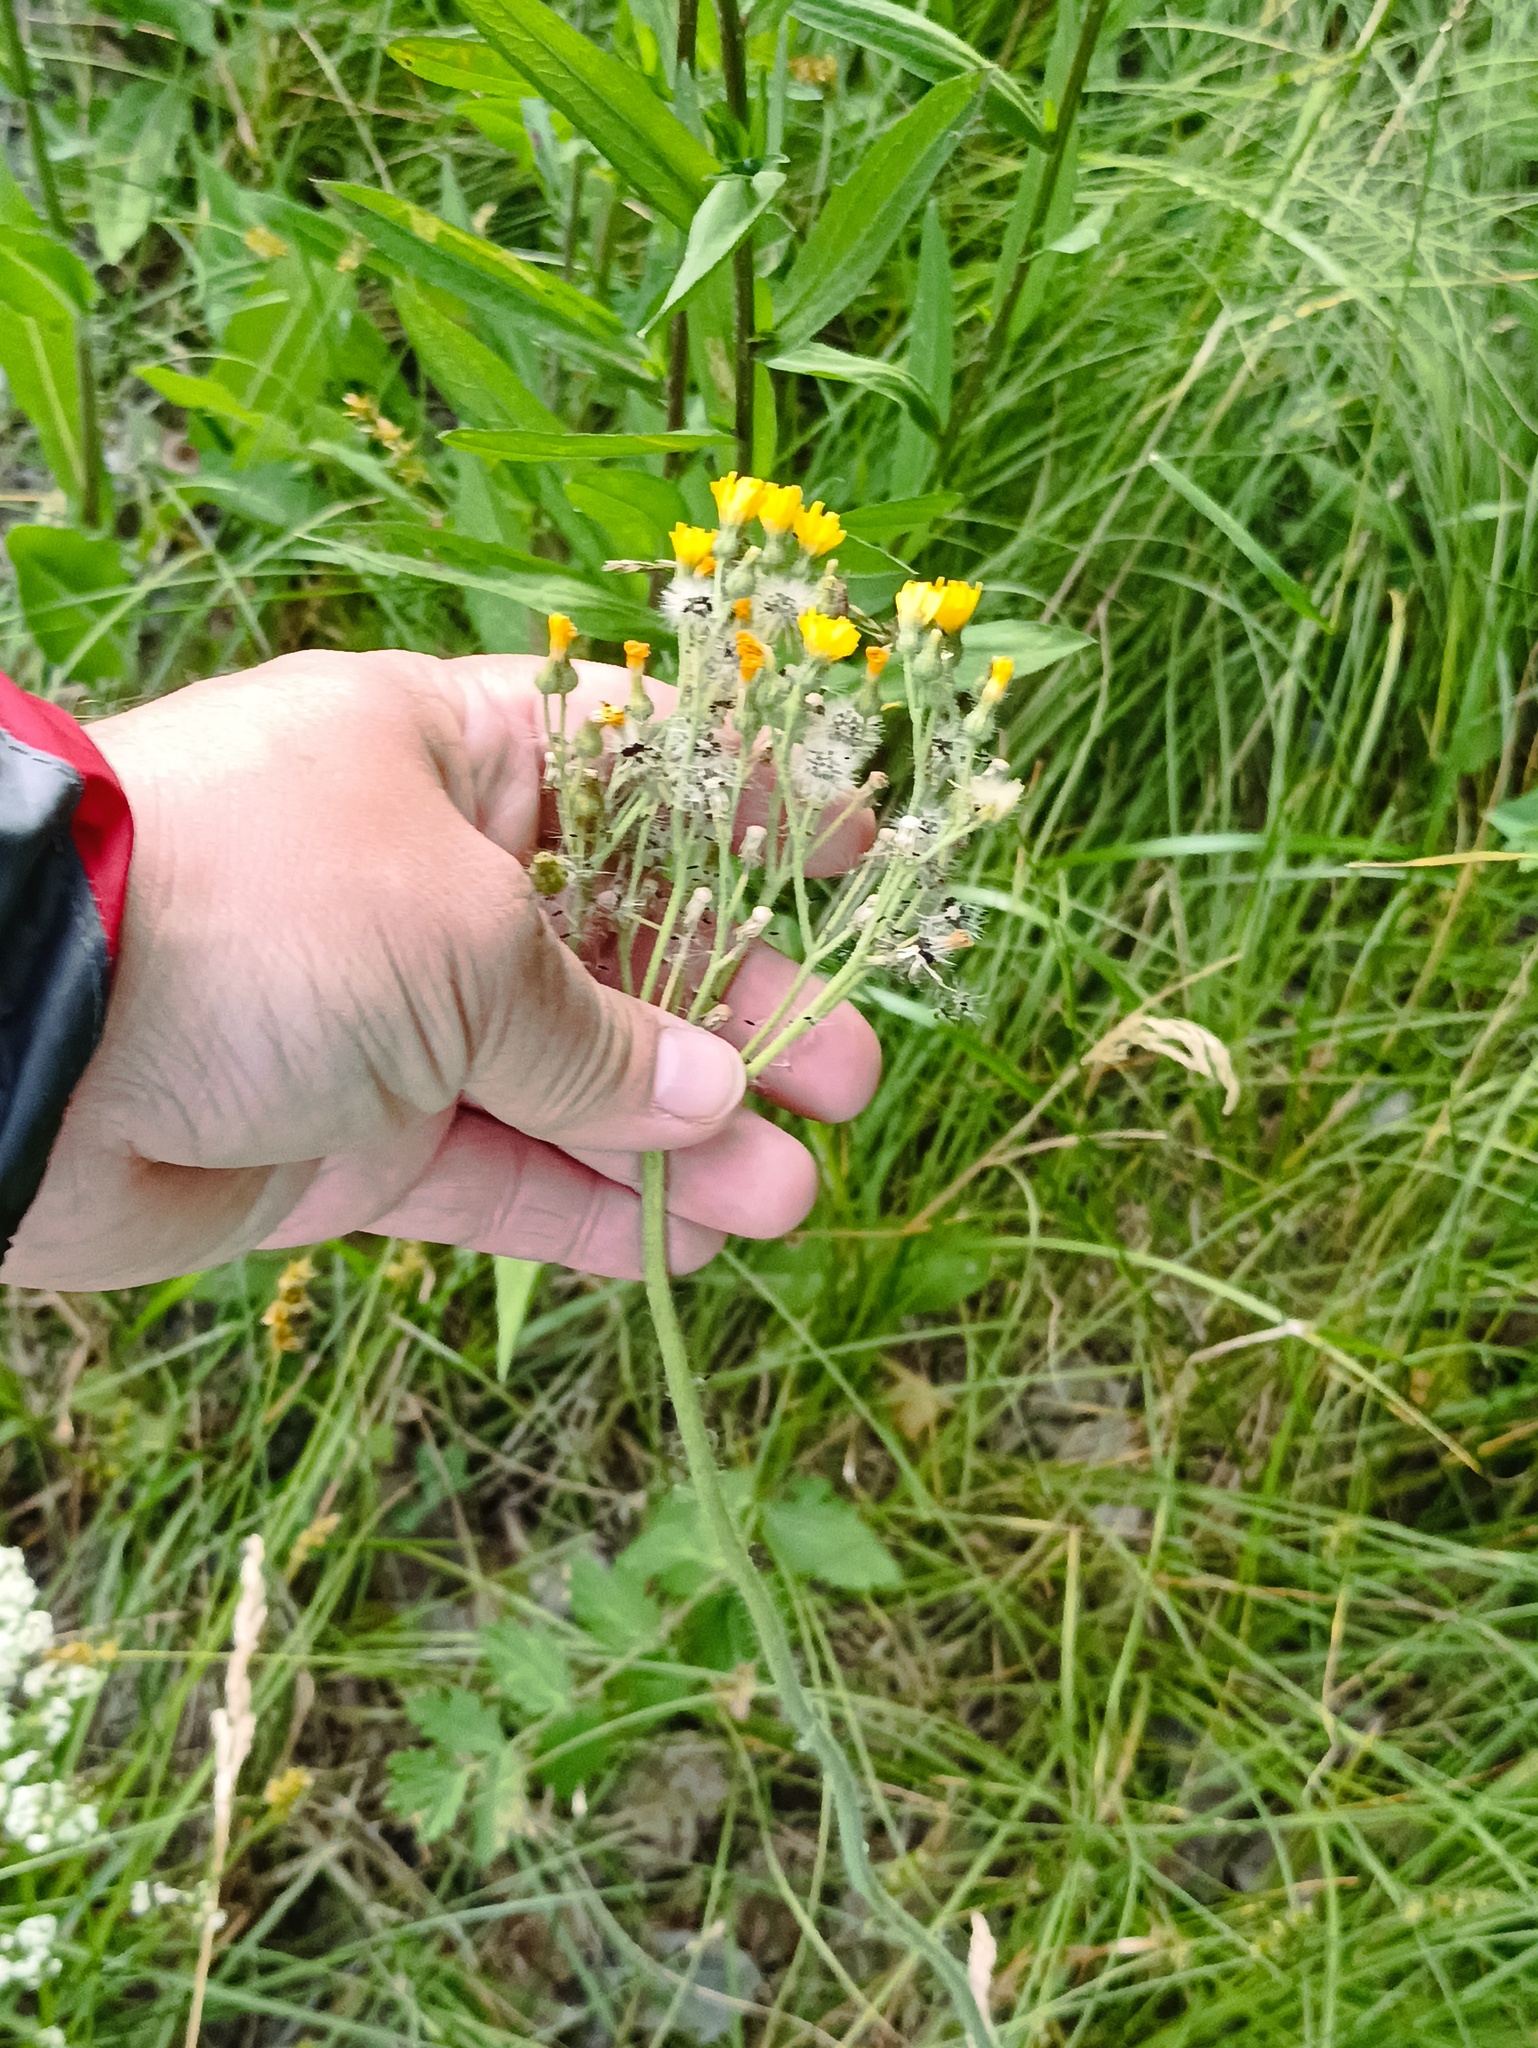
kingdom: Plantae
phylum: Tracheophyta
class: Magnoliopsida
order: Asterales
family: Asteraceae
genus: Pilosella
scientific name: Pilosella echioides
